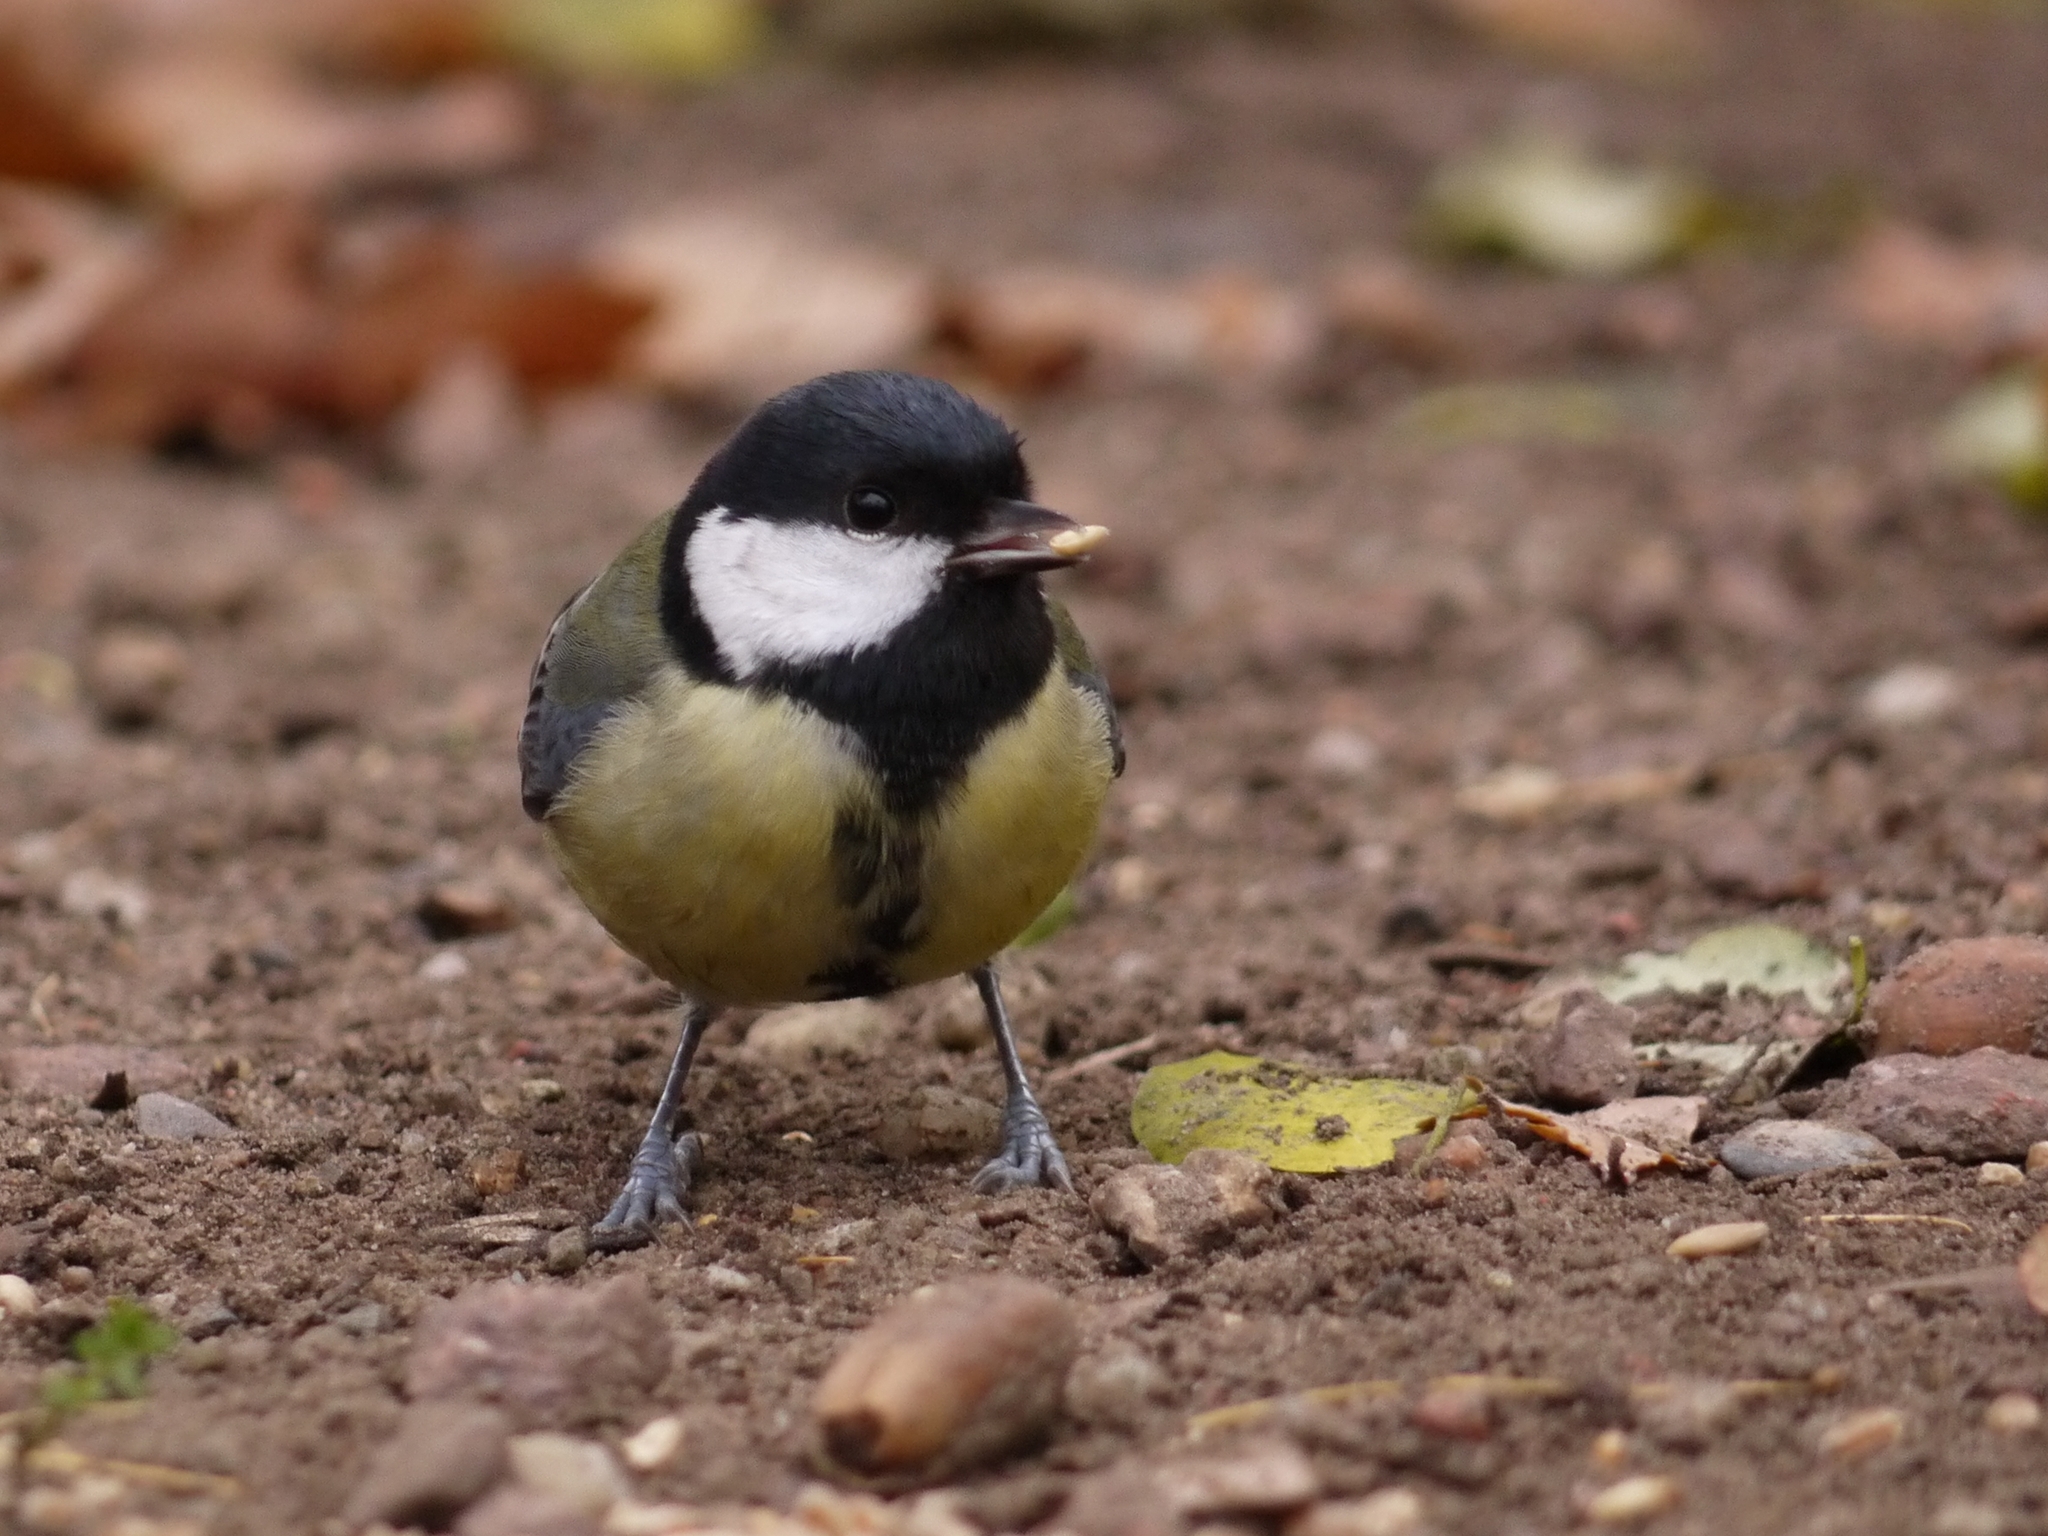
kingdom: Animalia
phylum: Chordata
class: Aves
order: Passeriformes
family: Paridae
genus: Parus
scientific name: Parus major
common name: Great tit
